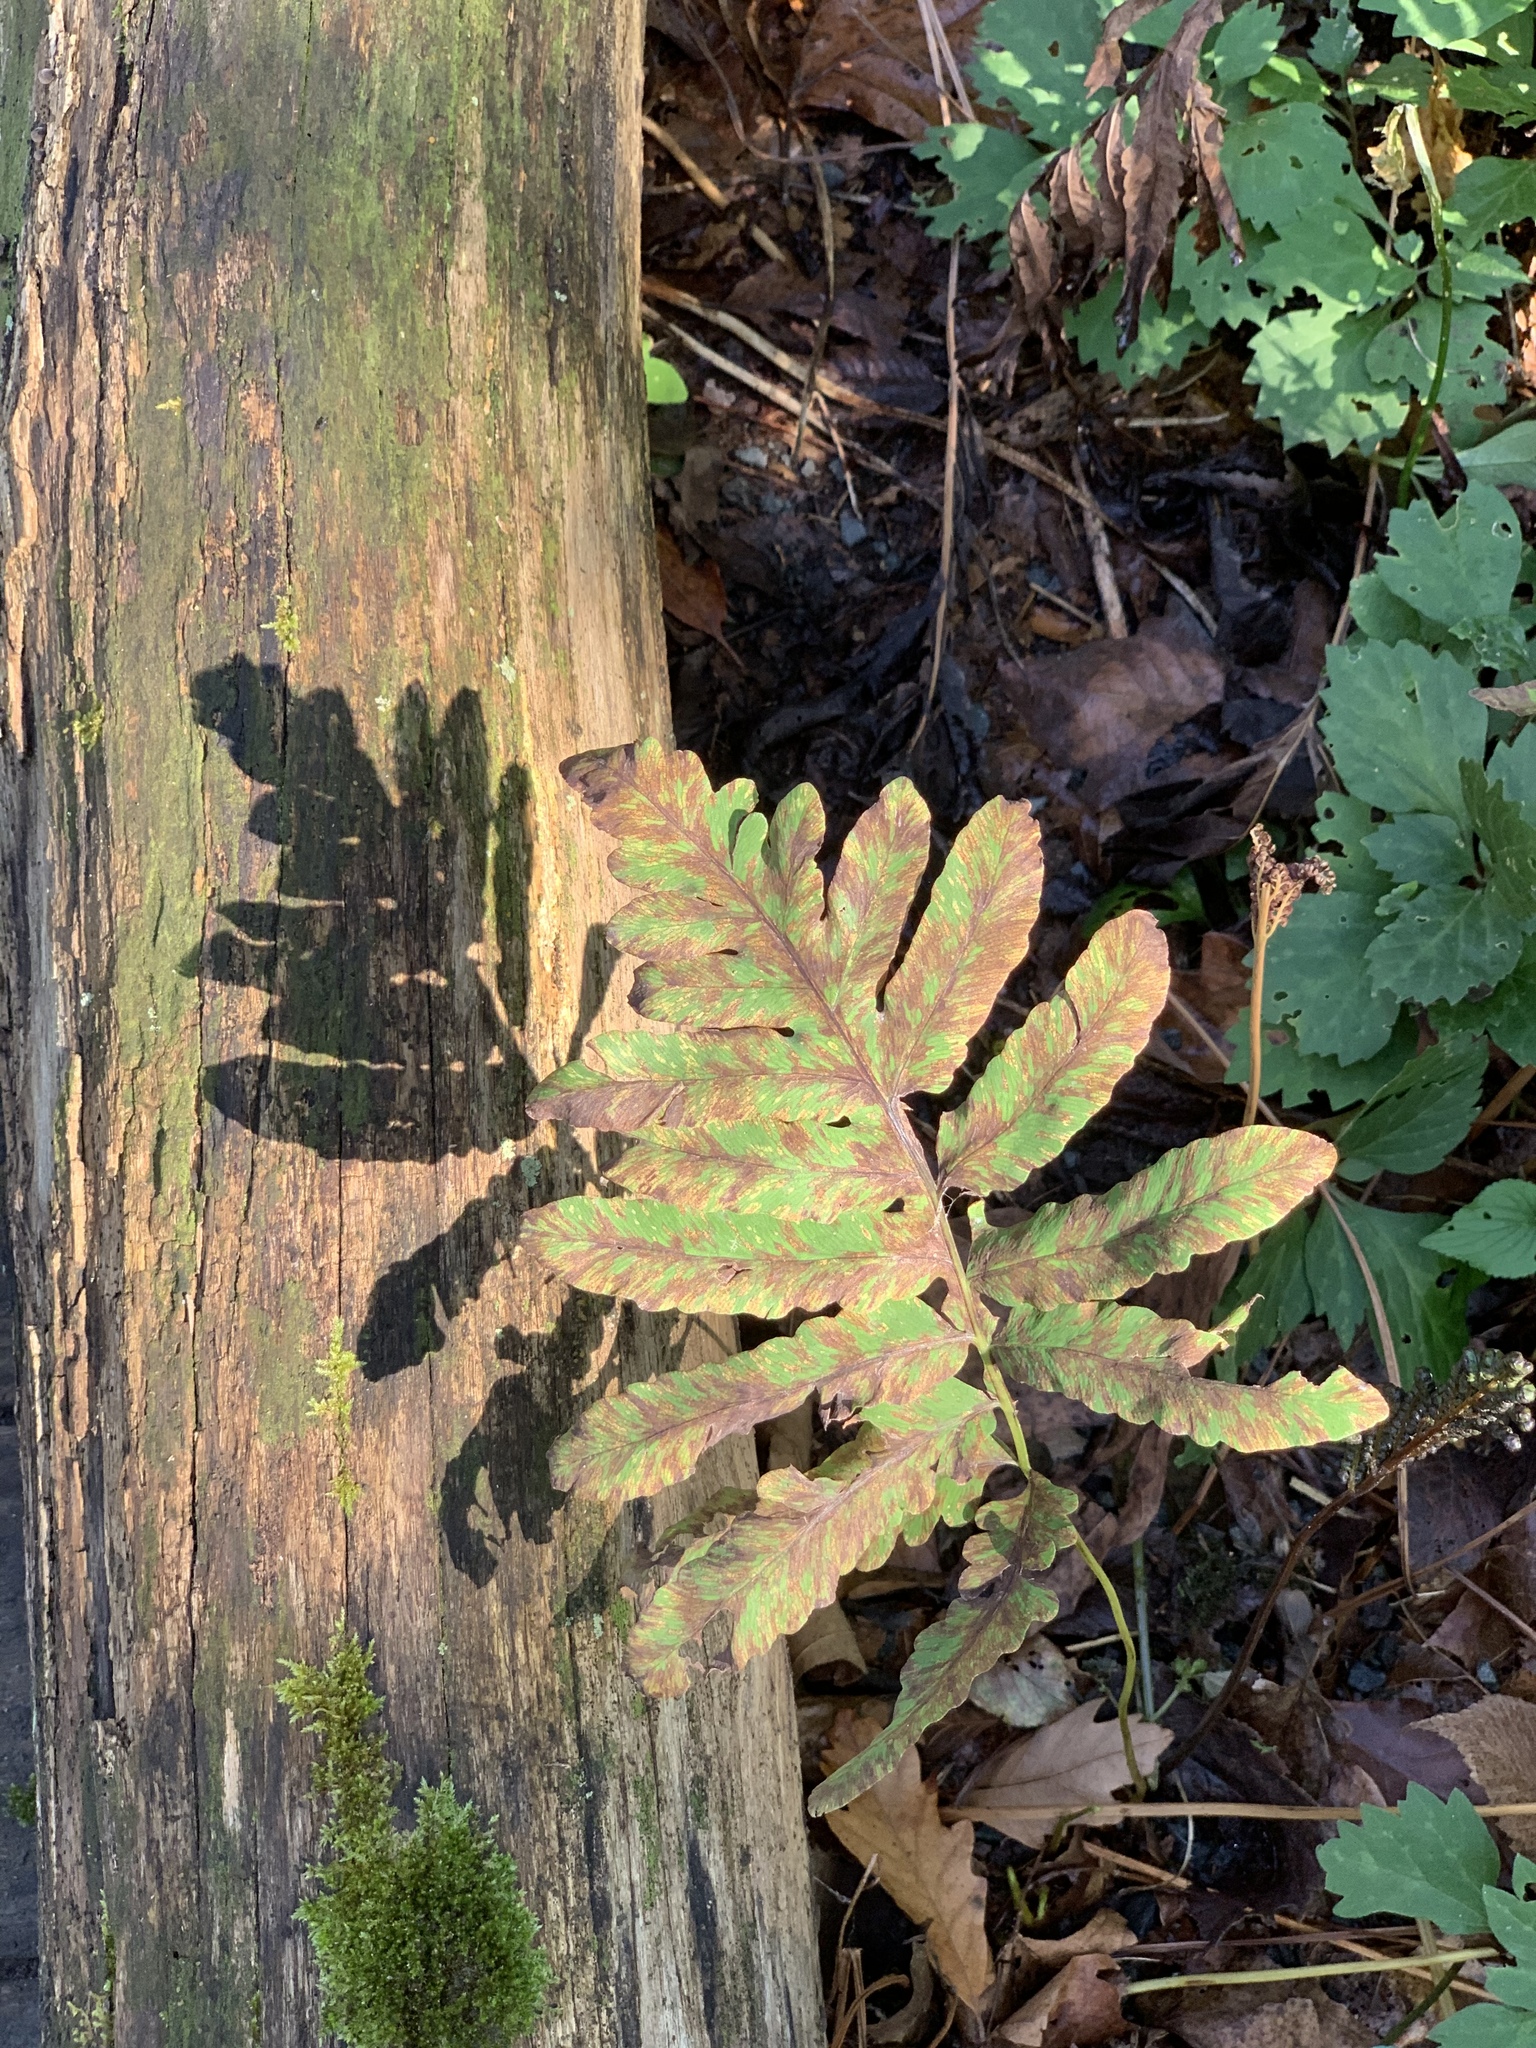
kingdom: Plantae
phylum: Tracheophyta
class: Polypodiopsida
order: Polypodiales
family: Onocleaceae
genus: Onoclea
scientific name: Onoclea sensibilis
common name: Sensitive fern
